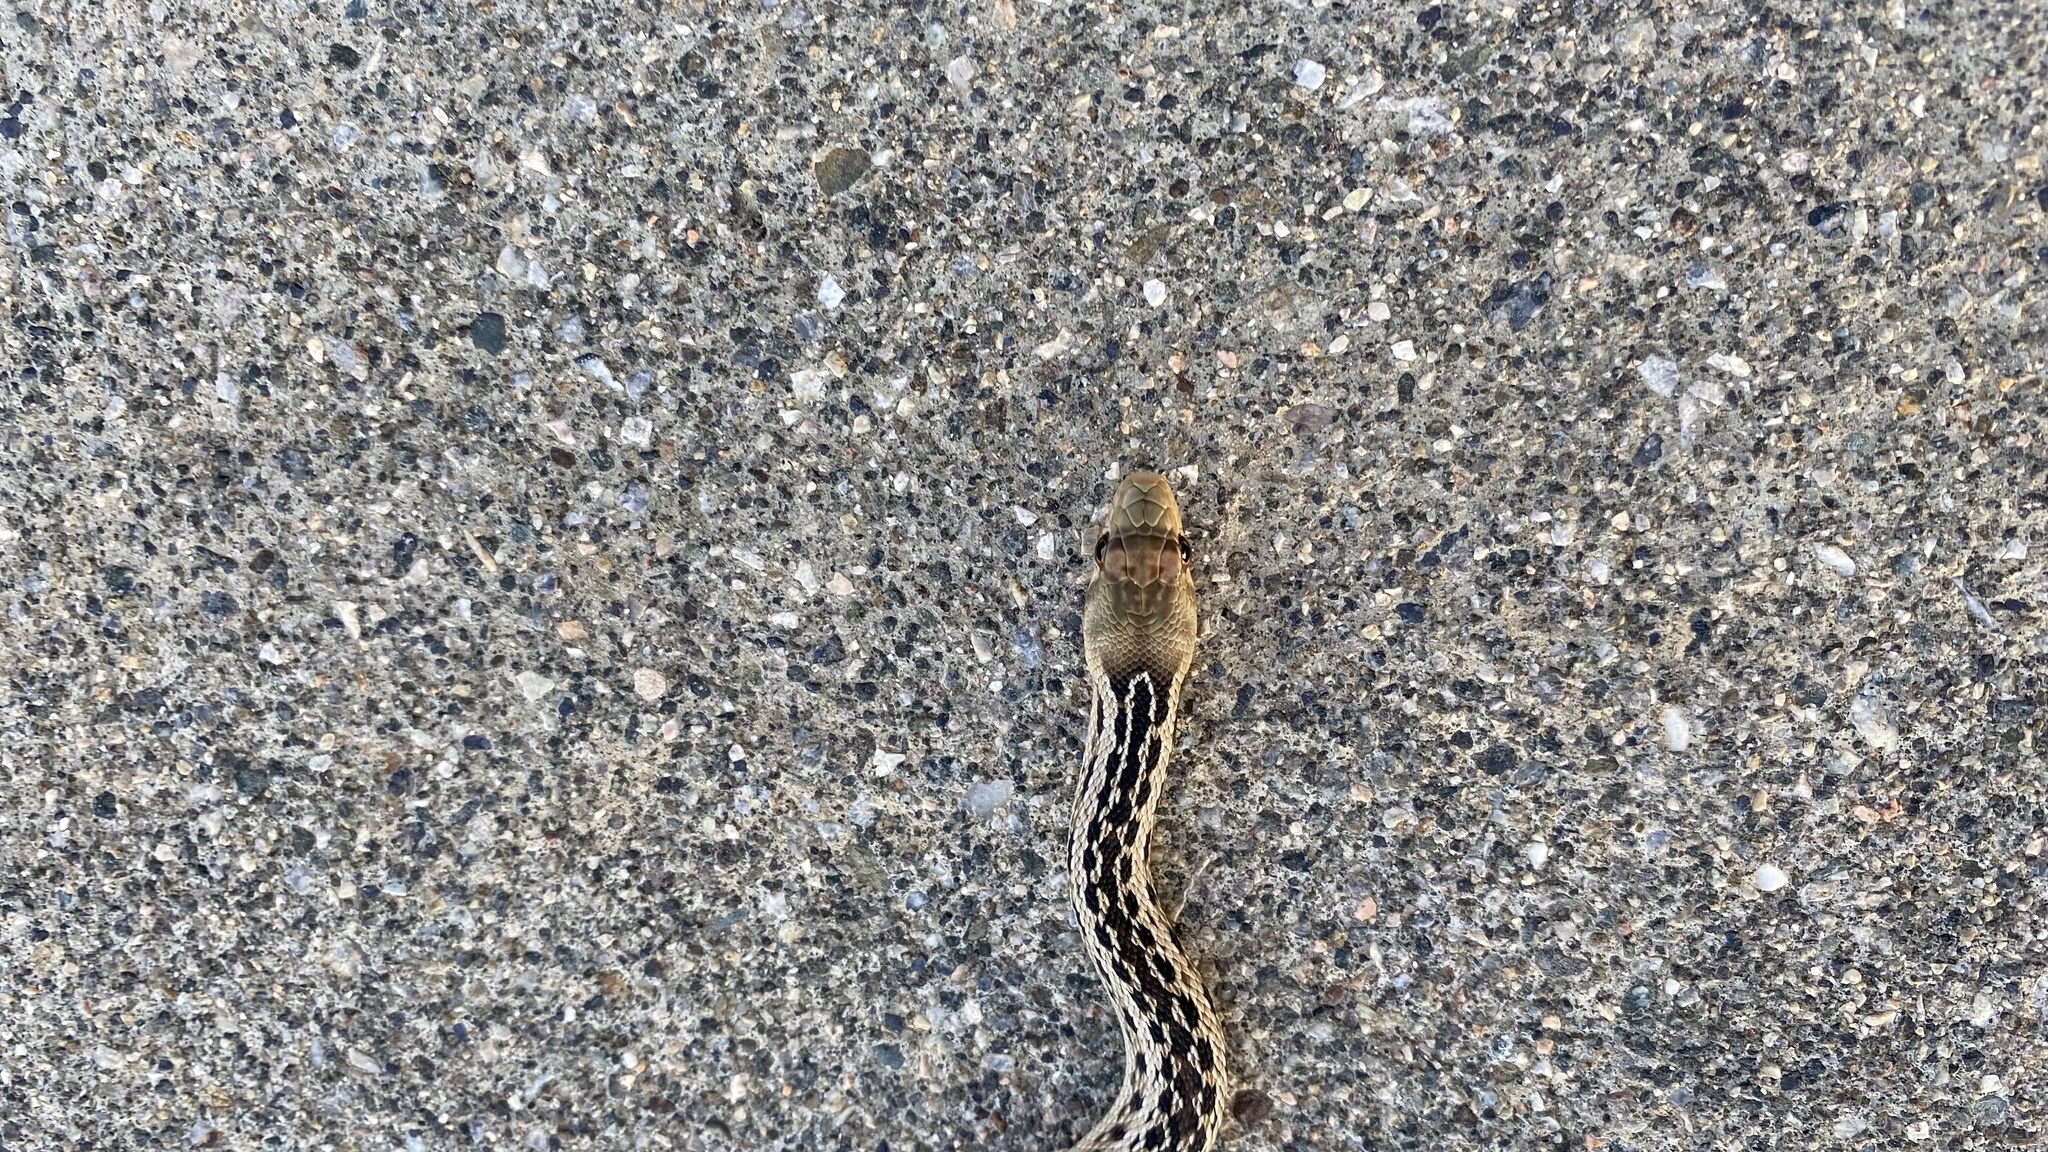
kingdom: Animalia
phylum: Chordata
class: Squamata
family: Colubridae
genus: Pituophis
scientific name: Pituophis catenifer
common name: Gopher snake
